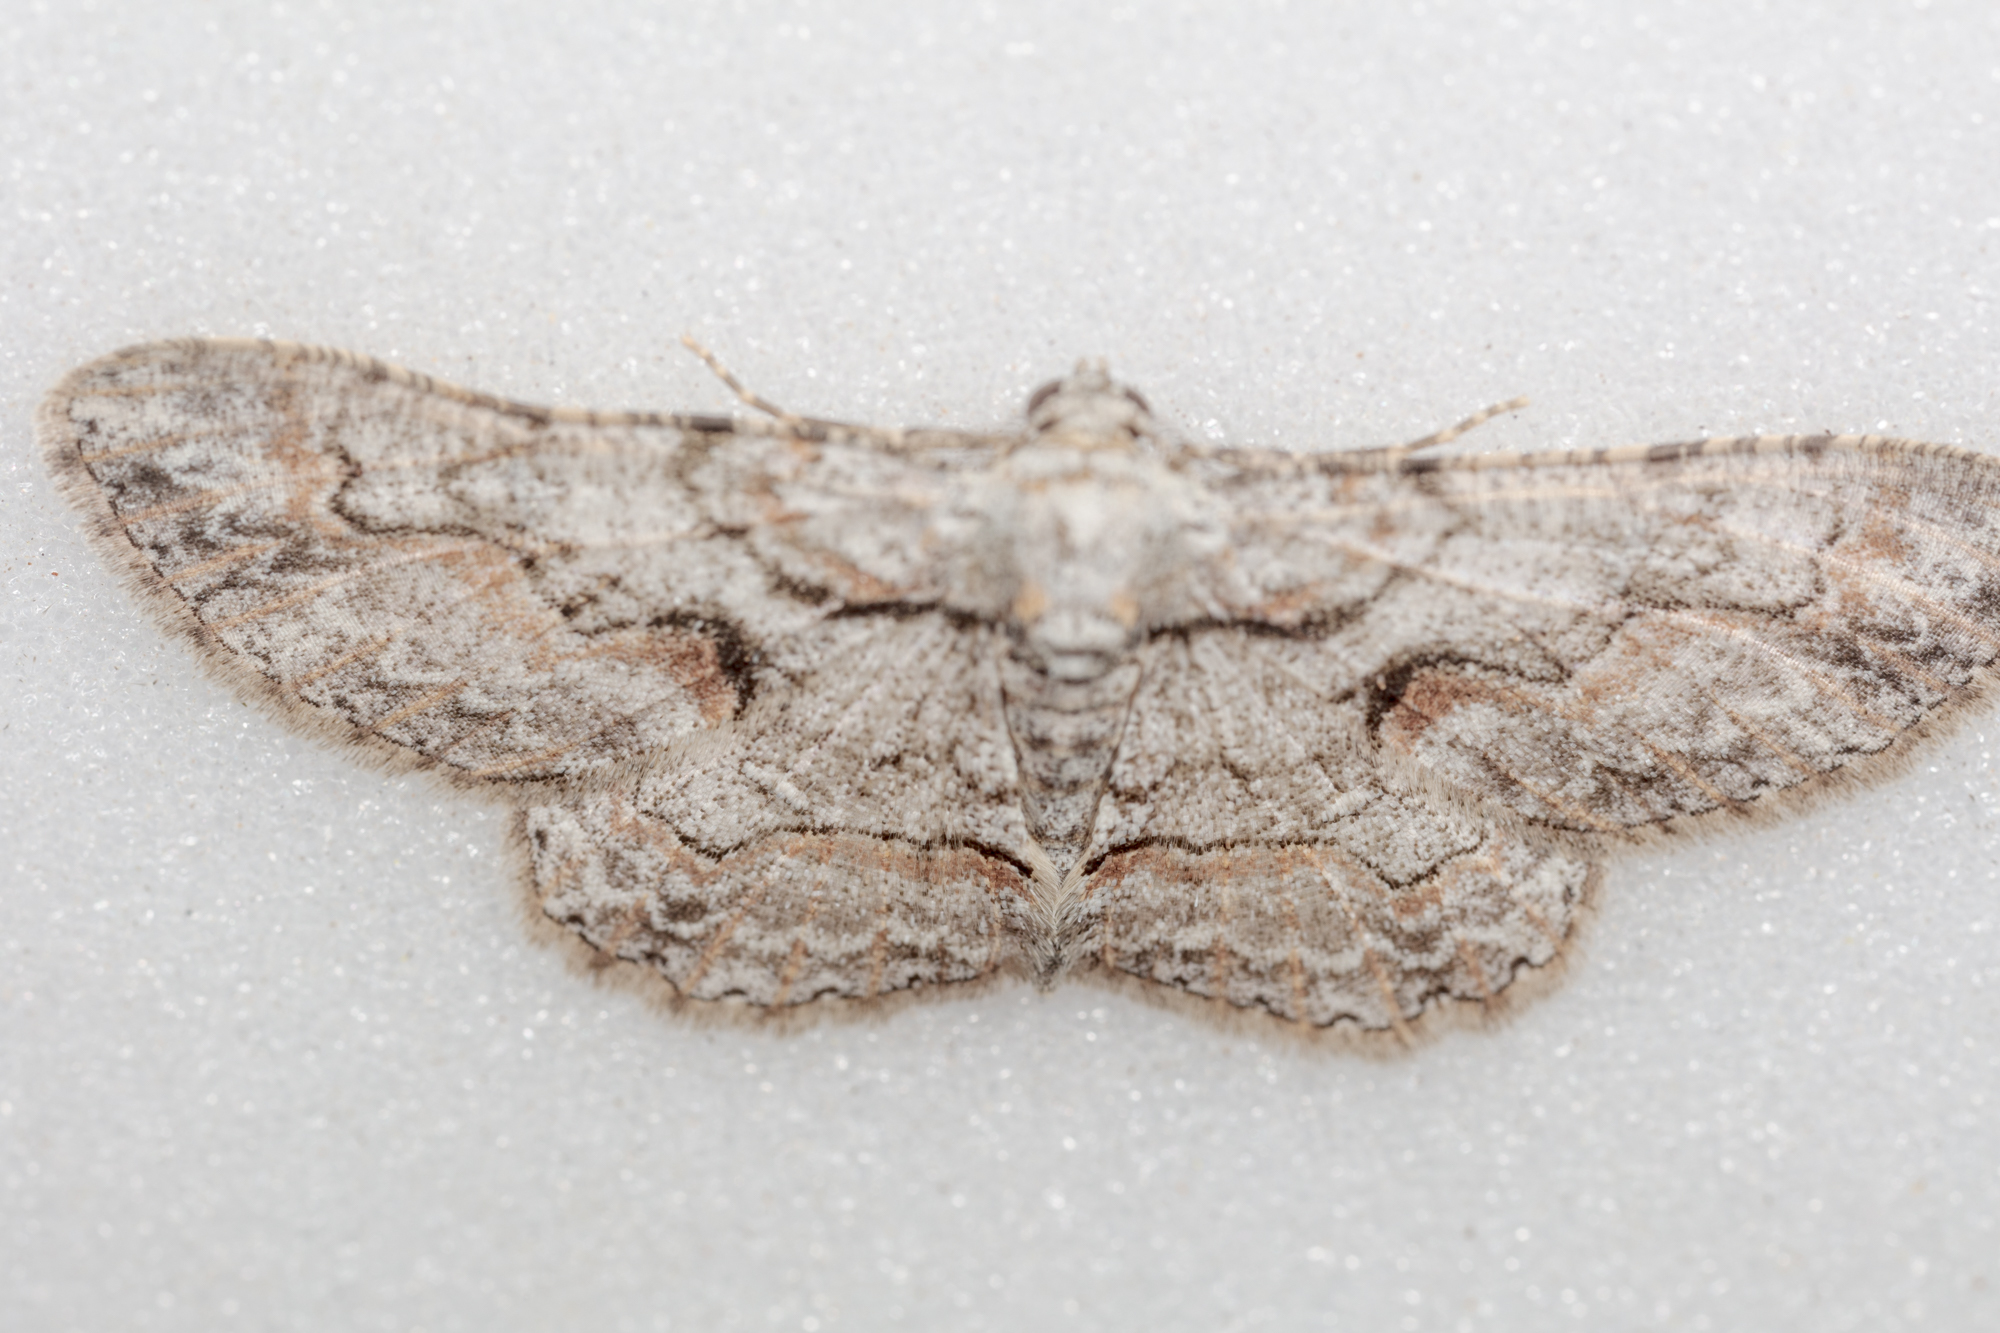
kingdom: Animalia
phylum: Arthropoda
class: Insecta
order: Lepidoptera
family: Geometridae
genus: Iridopsis
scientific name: Iridopsis defectaria
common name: Brown-shaded gray
